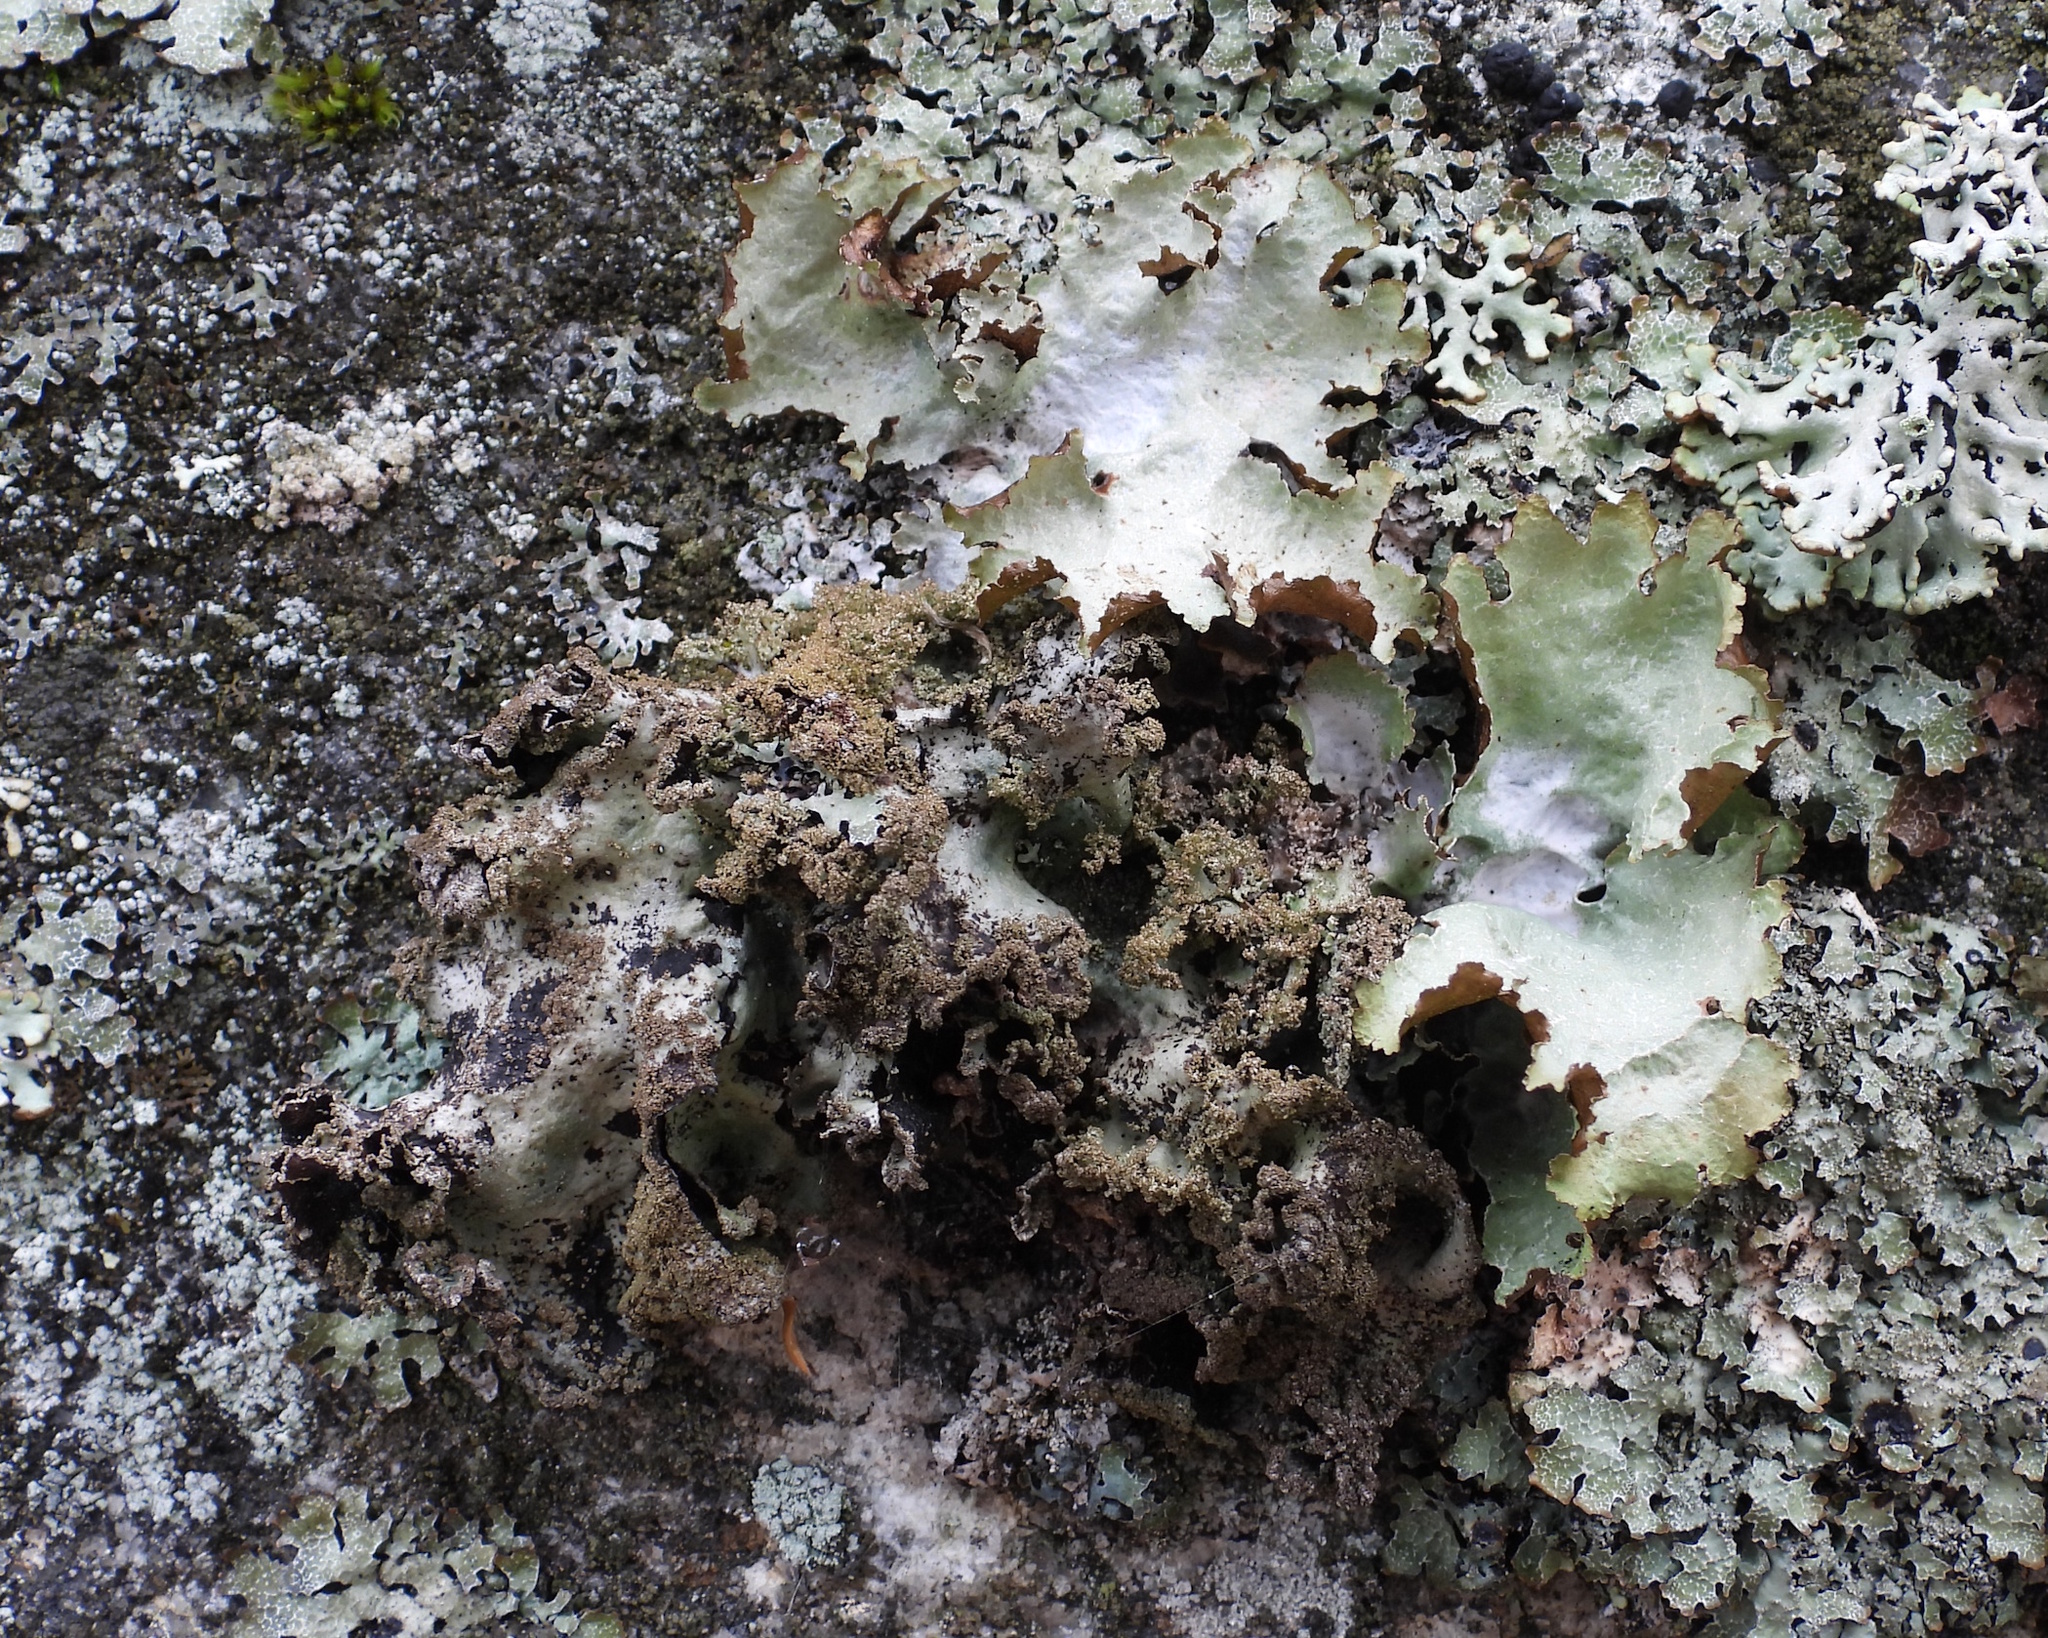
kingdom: Fungi
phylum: Ascomycota
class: Lecanoromycetes
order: Lecanorales
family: Parmeliaceae
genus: Platismatia
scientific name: Platismatia glauca
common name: Varied rag lichen
